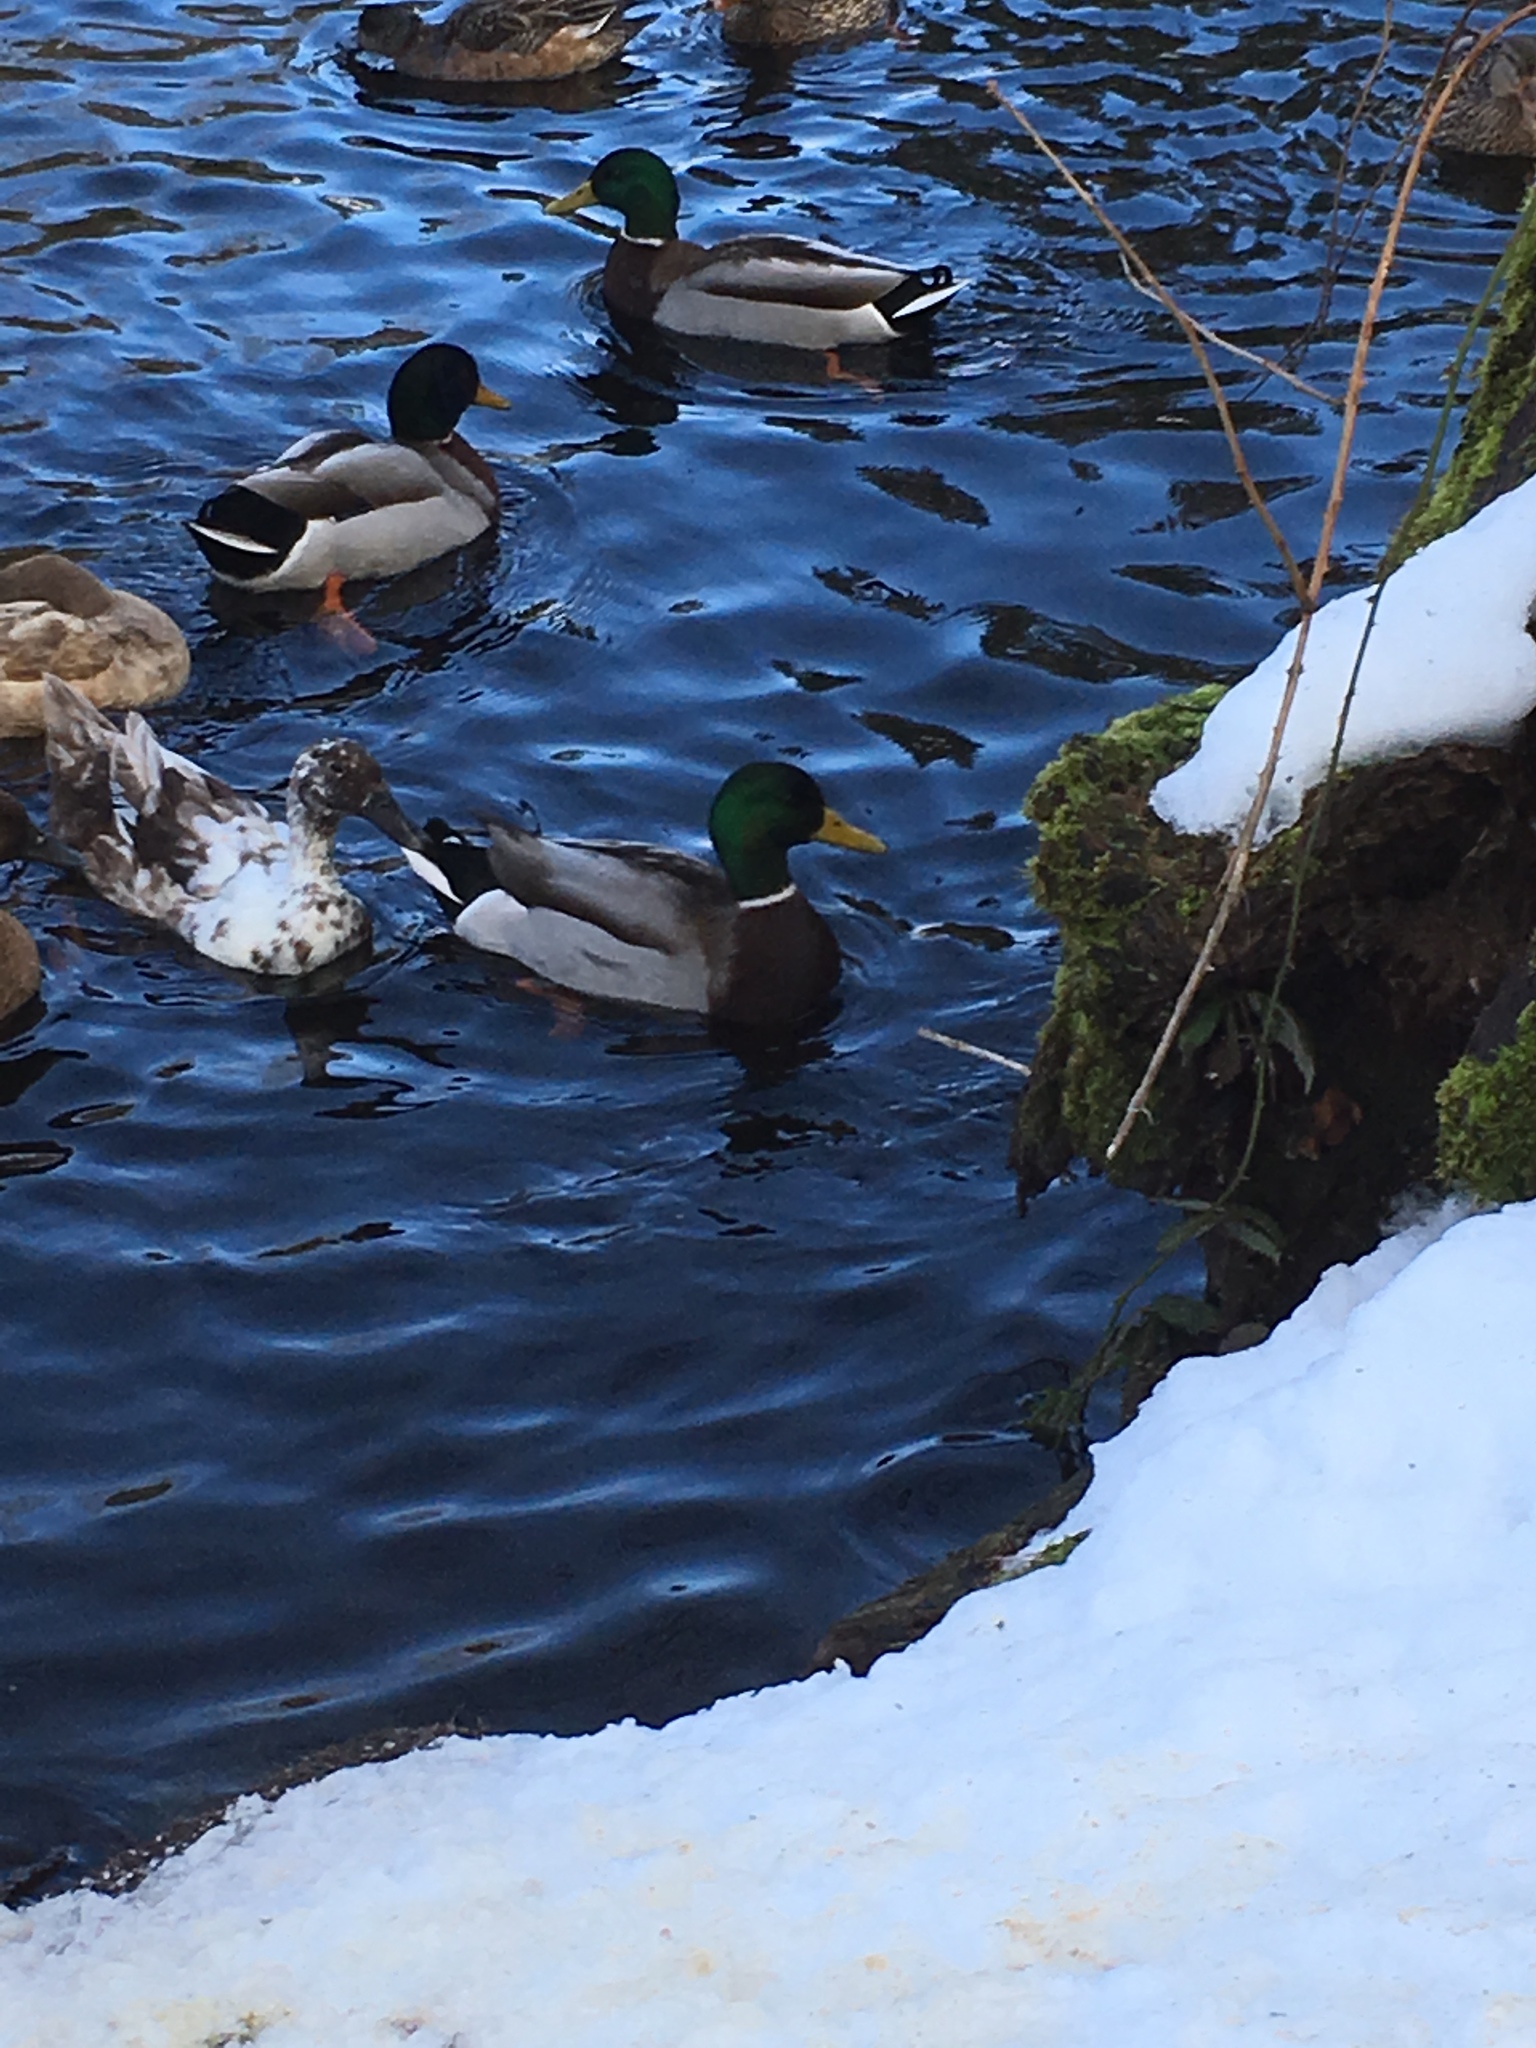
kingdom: Animalia
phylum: Chordata
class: Aves
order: Anseriformes
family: Anatidae
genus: Anas
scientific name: Anas platyrhynchos
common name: Mallard
